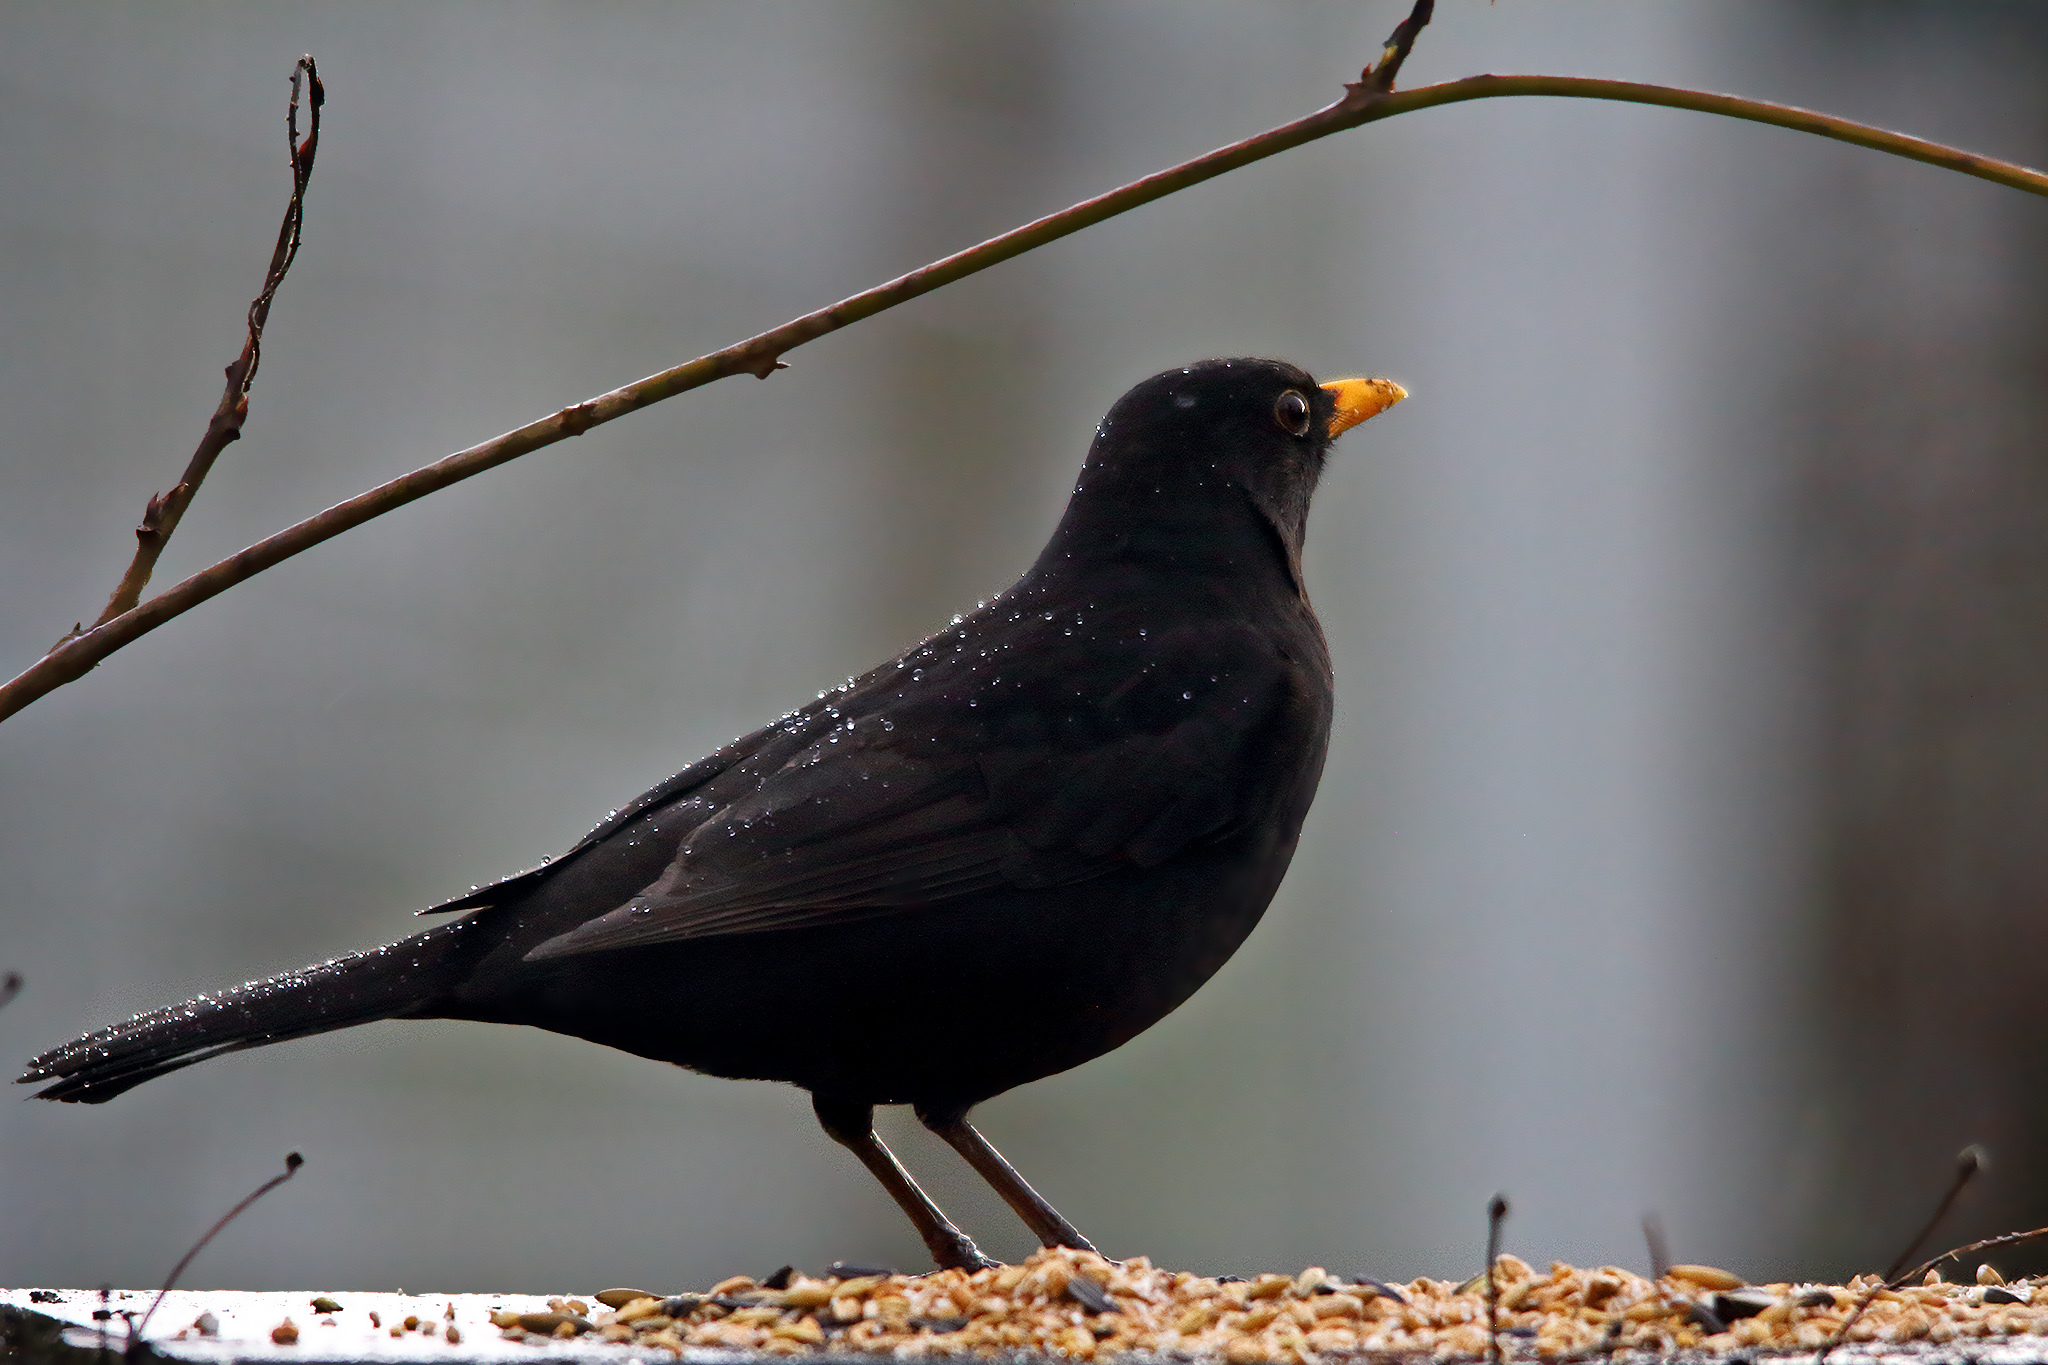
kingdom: Animalia
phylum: Chordata
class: Aves
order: Passeriformes
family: Turdidae
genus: Turdus
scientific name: Turdus merula
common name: Common blackbird
